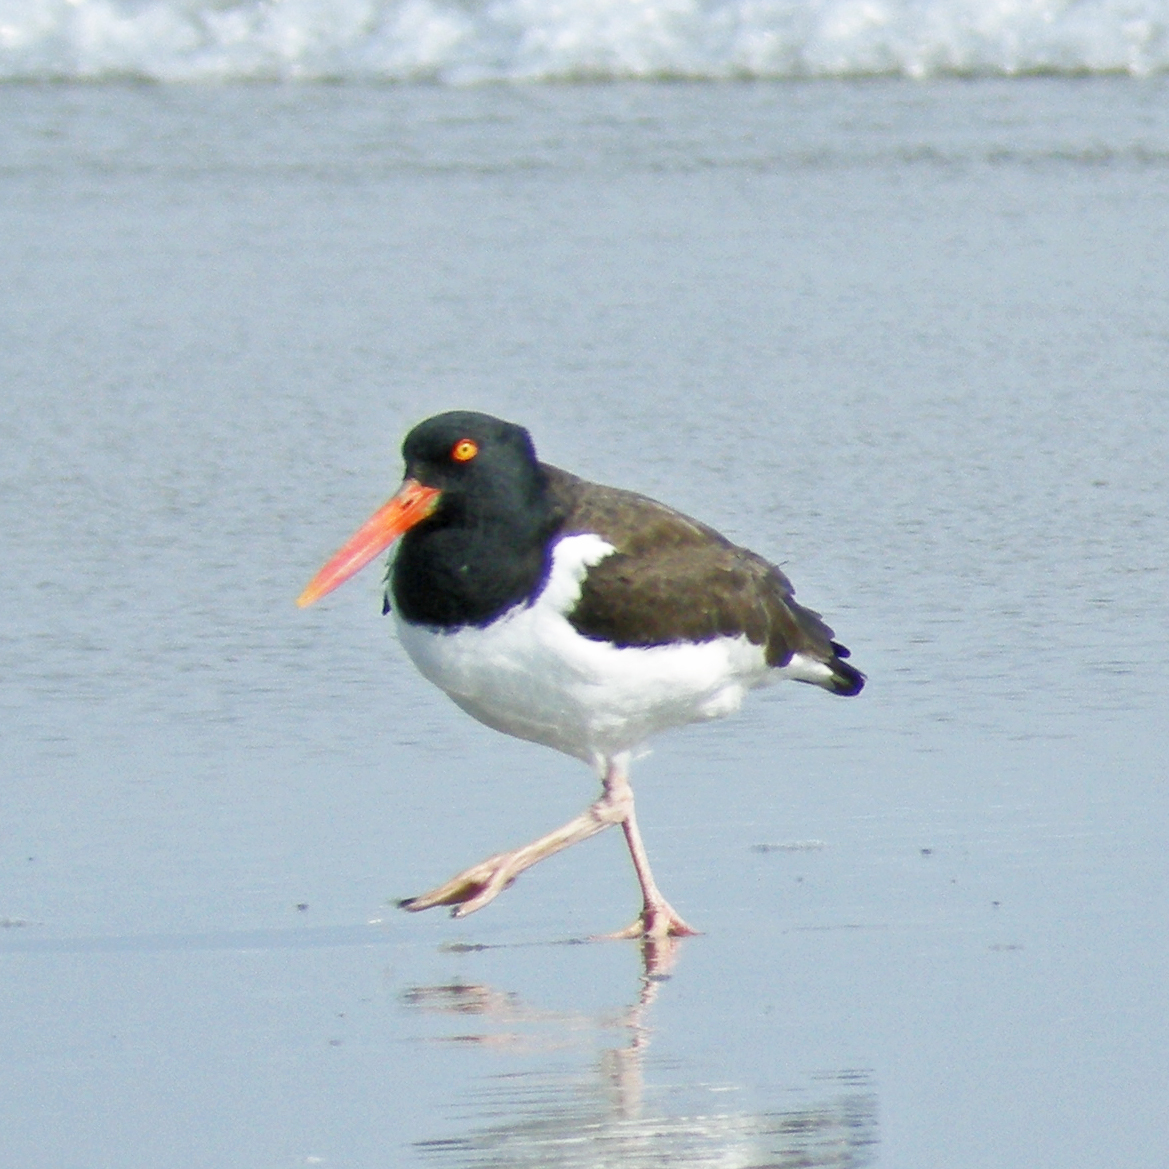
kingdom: Animalia
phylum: Chordata
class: Aves
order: Charadriiformes
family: Haematopodidae
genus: Haematopus
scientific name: Haematopus palliatus
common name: American oystercatcher
